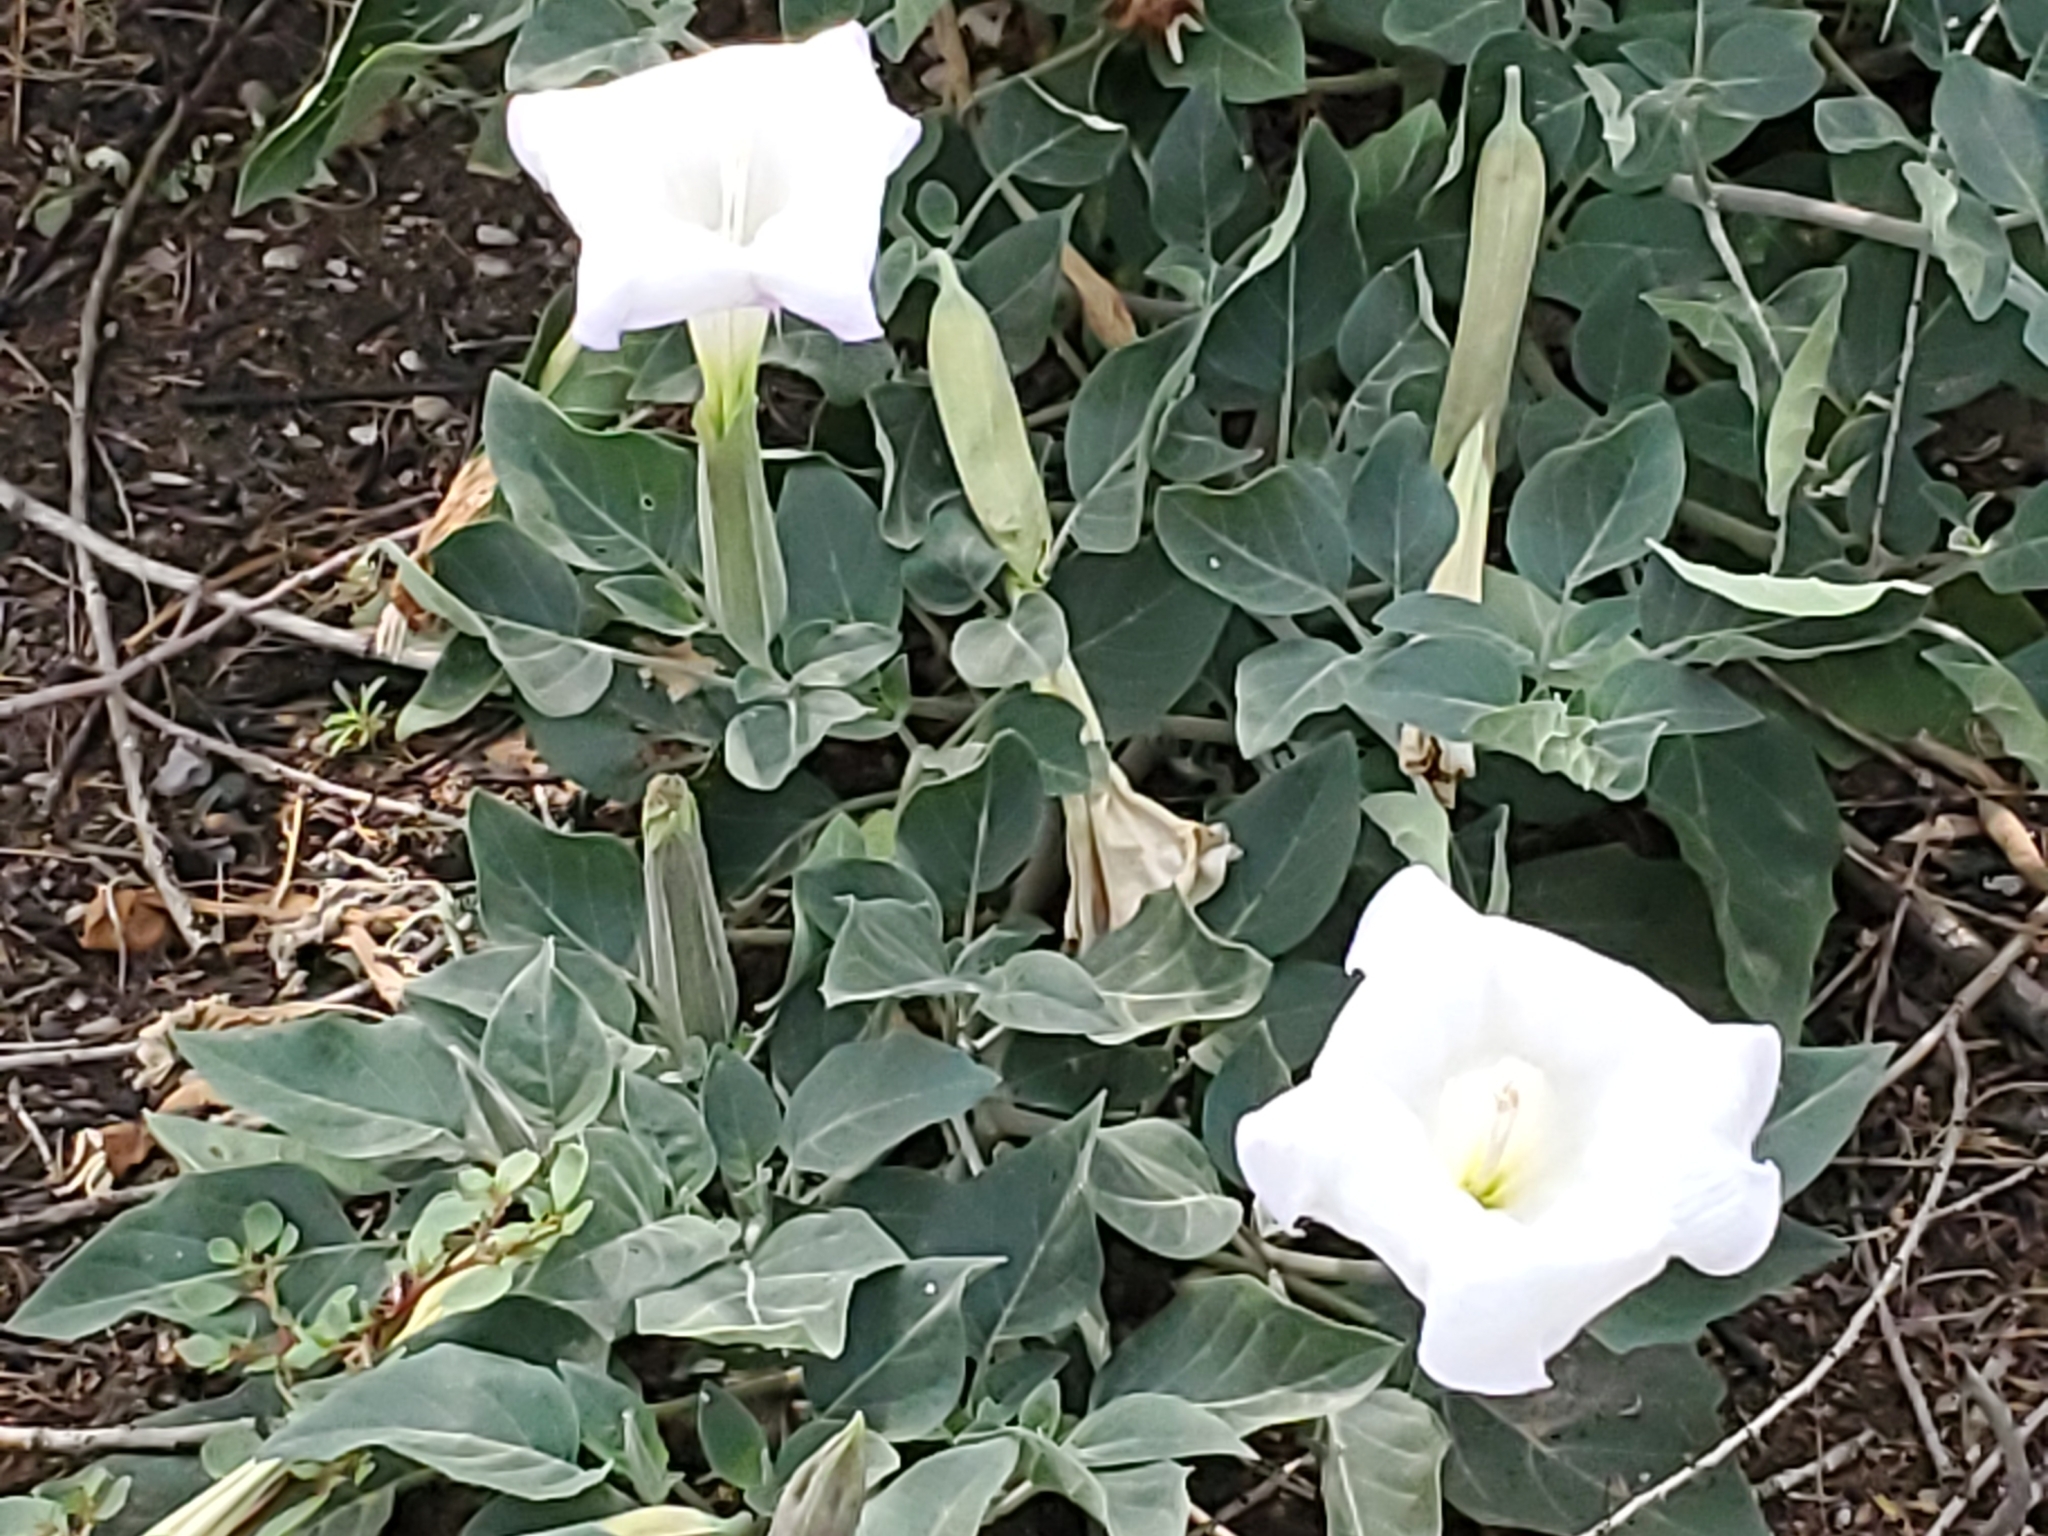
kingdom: Plantae
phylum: Tracheophyta
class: Magnoliopsida
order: Solanales
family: Solanaceae
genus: Datura
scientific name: Datura wrightii
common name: Sacred thorn-apple
